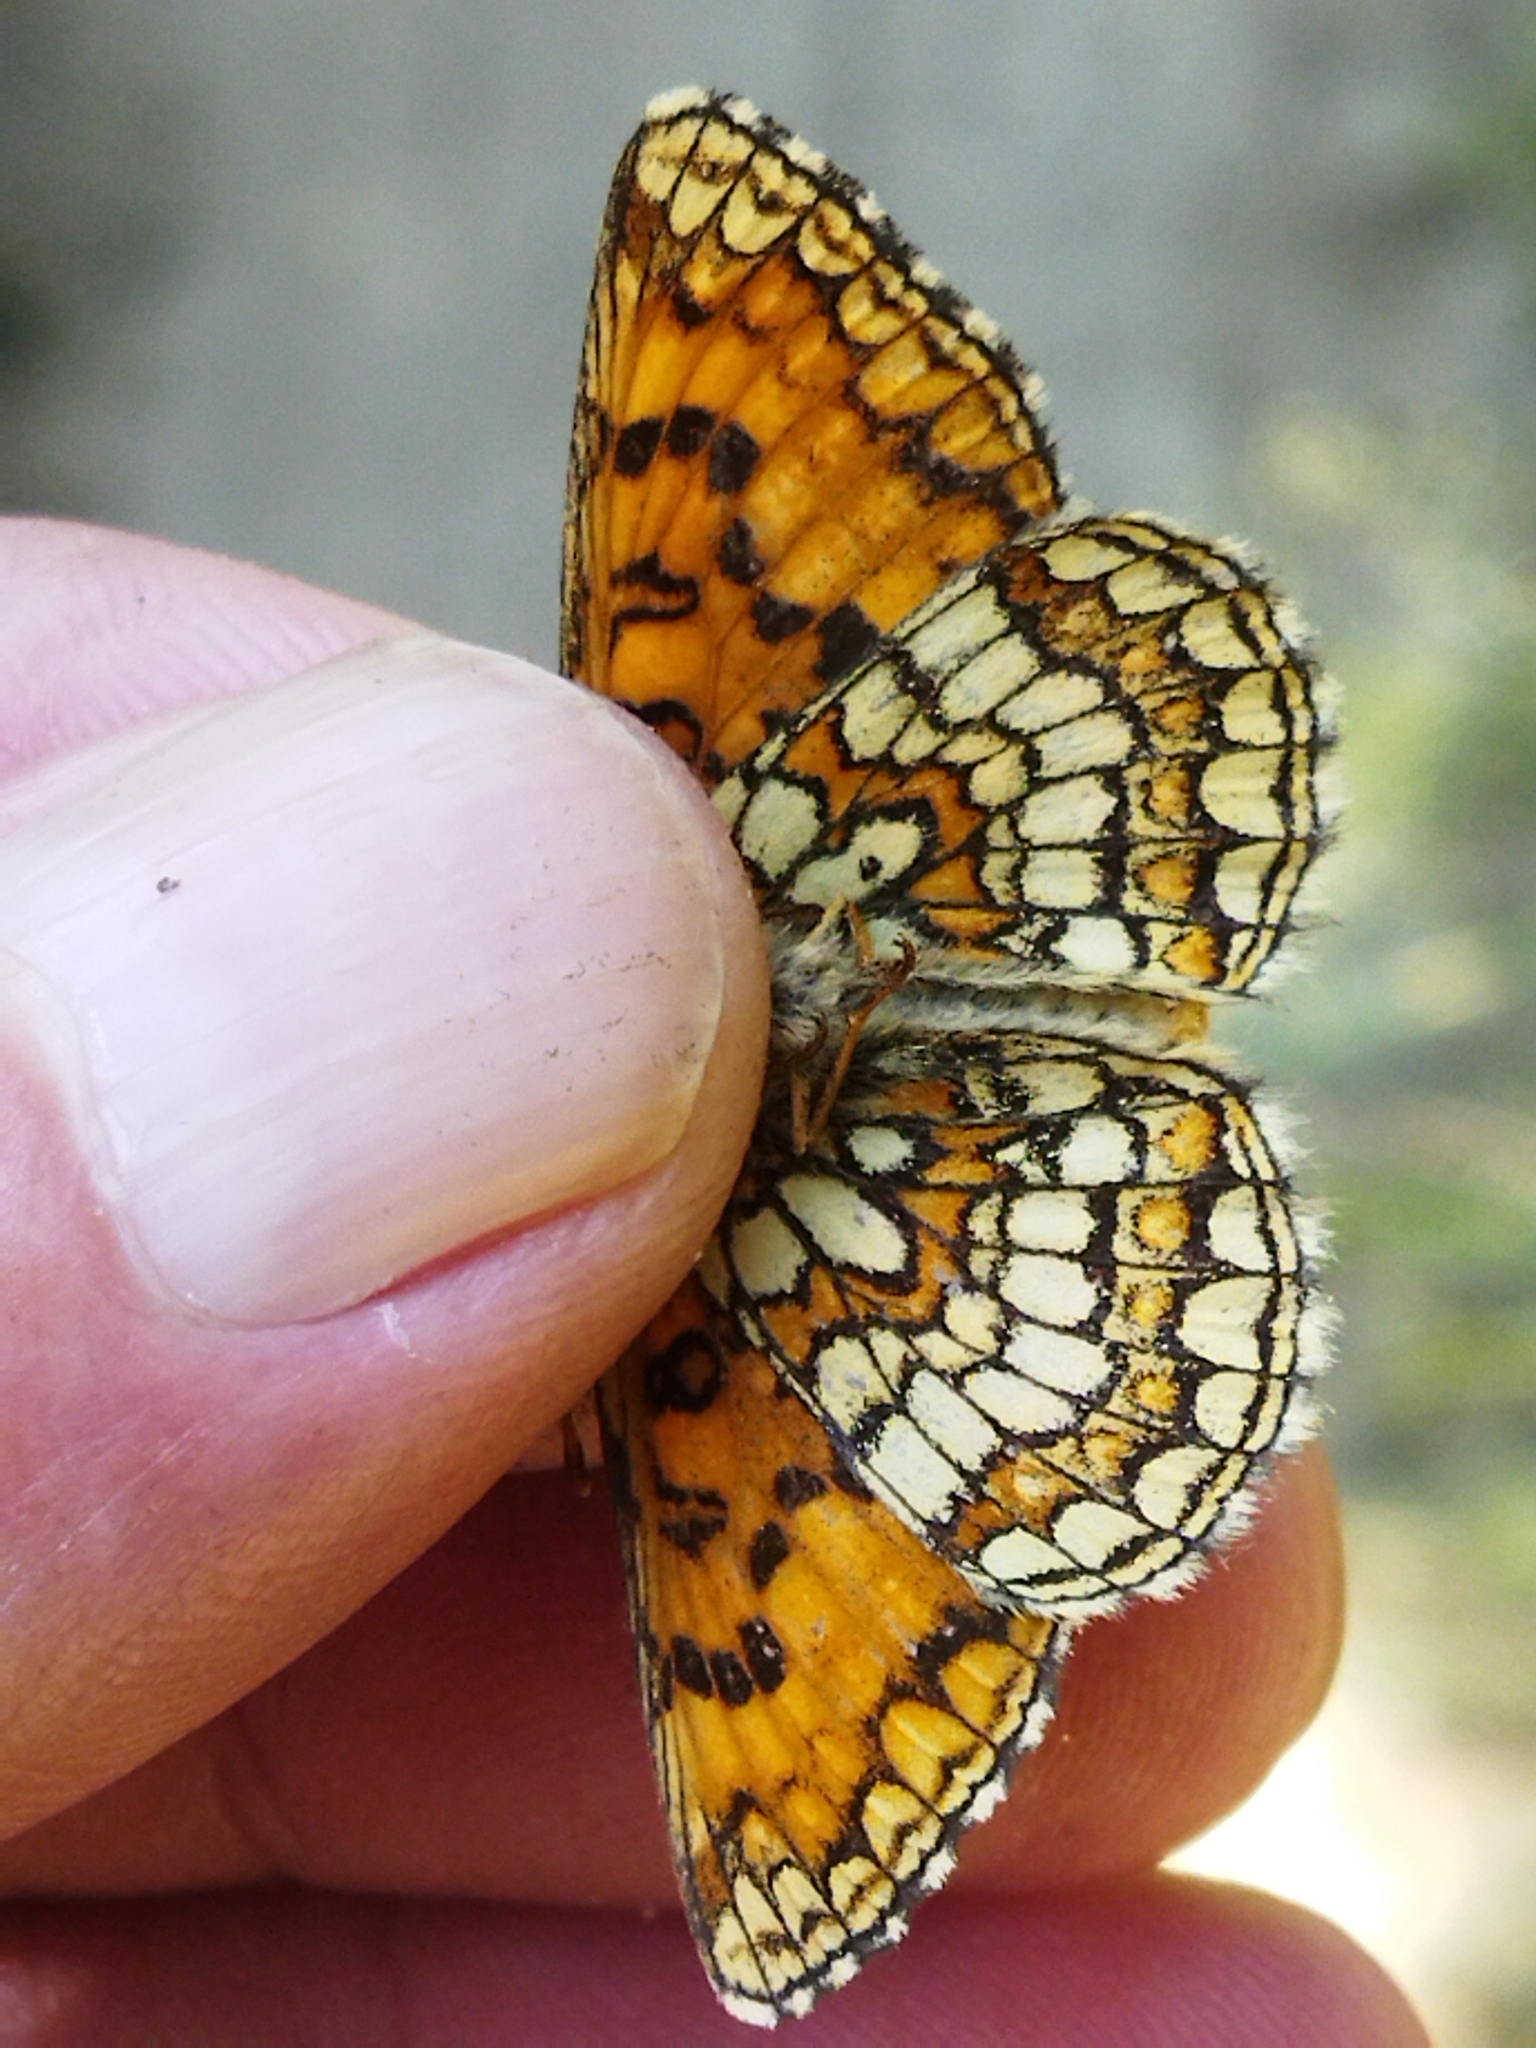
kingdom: Animalia
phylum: Arthropoda
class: Insecta
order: Lepidoptera
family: Nymphalidae
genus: Mellicta
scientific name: Mellicta aurelia
